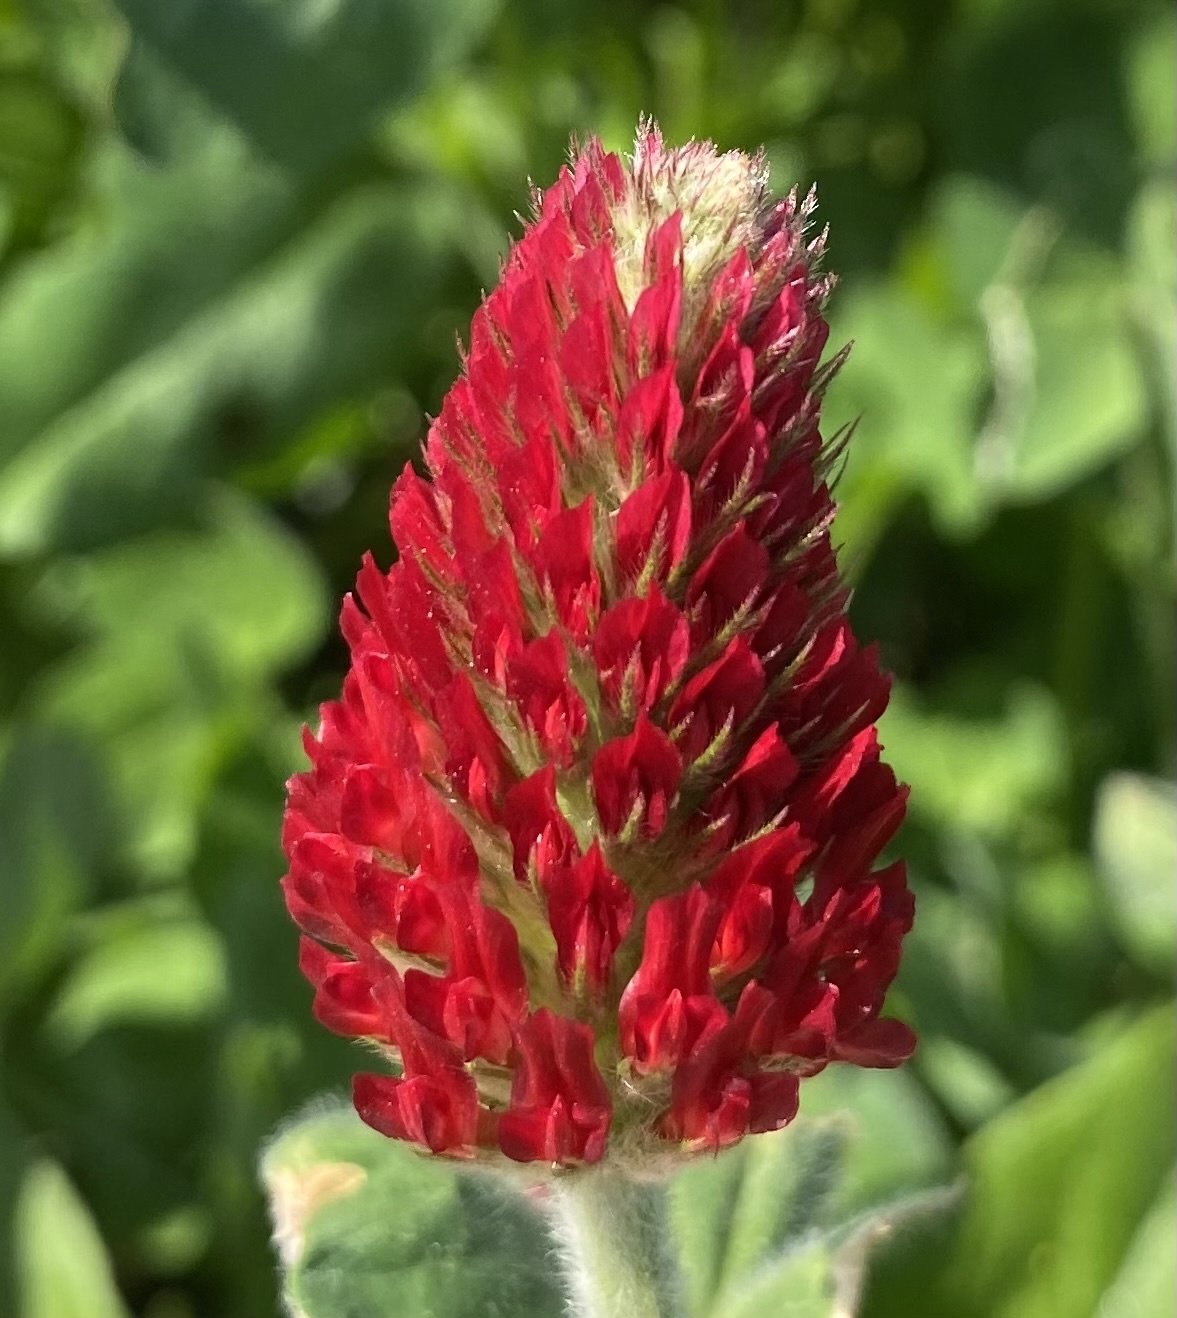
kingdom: Plantae
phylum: Tracheophyta
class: Magnoliopsida
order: Fabales
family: Fabaceae
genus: Trifolium
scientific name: Trifolium incarnatum
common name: Crimson clover
